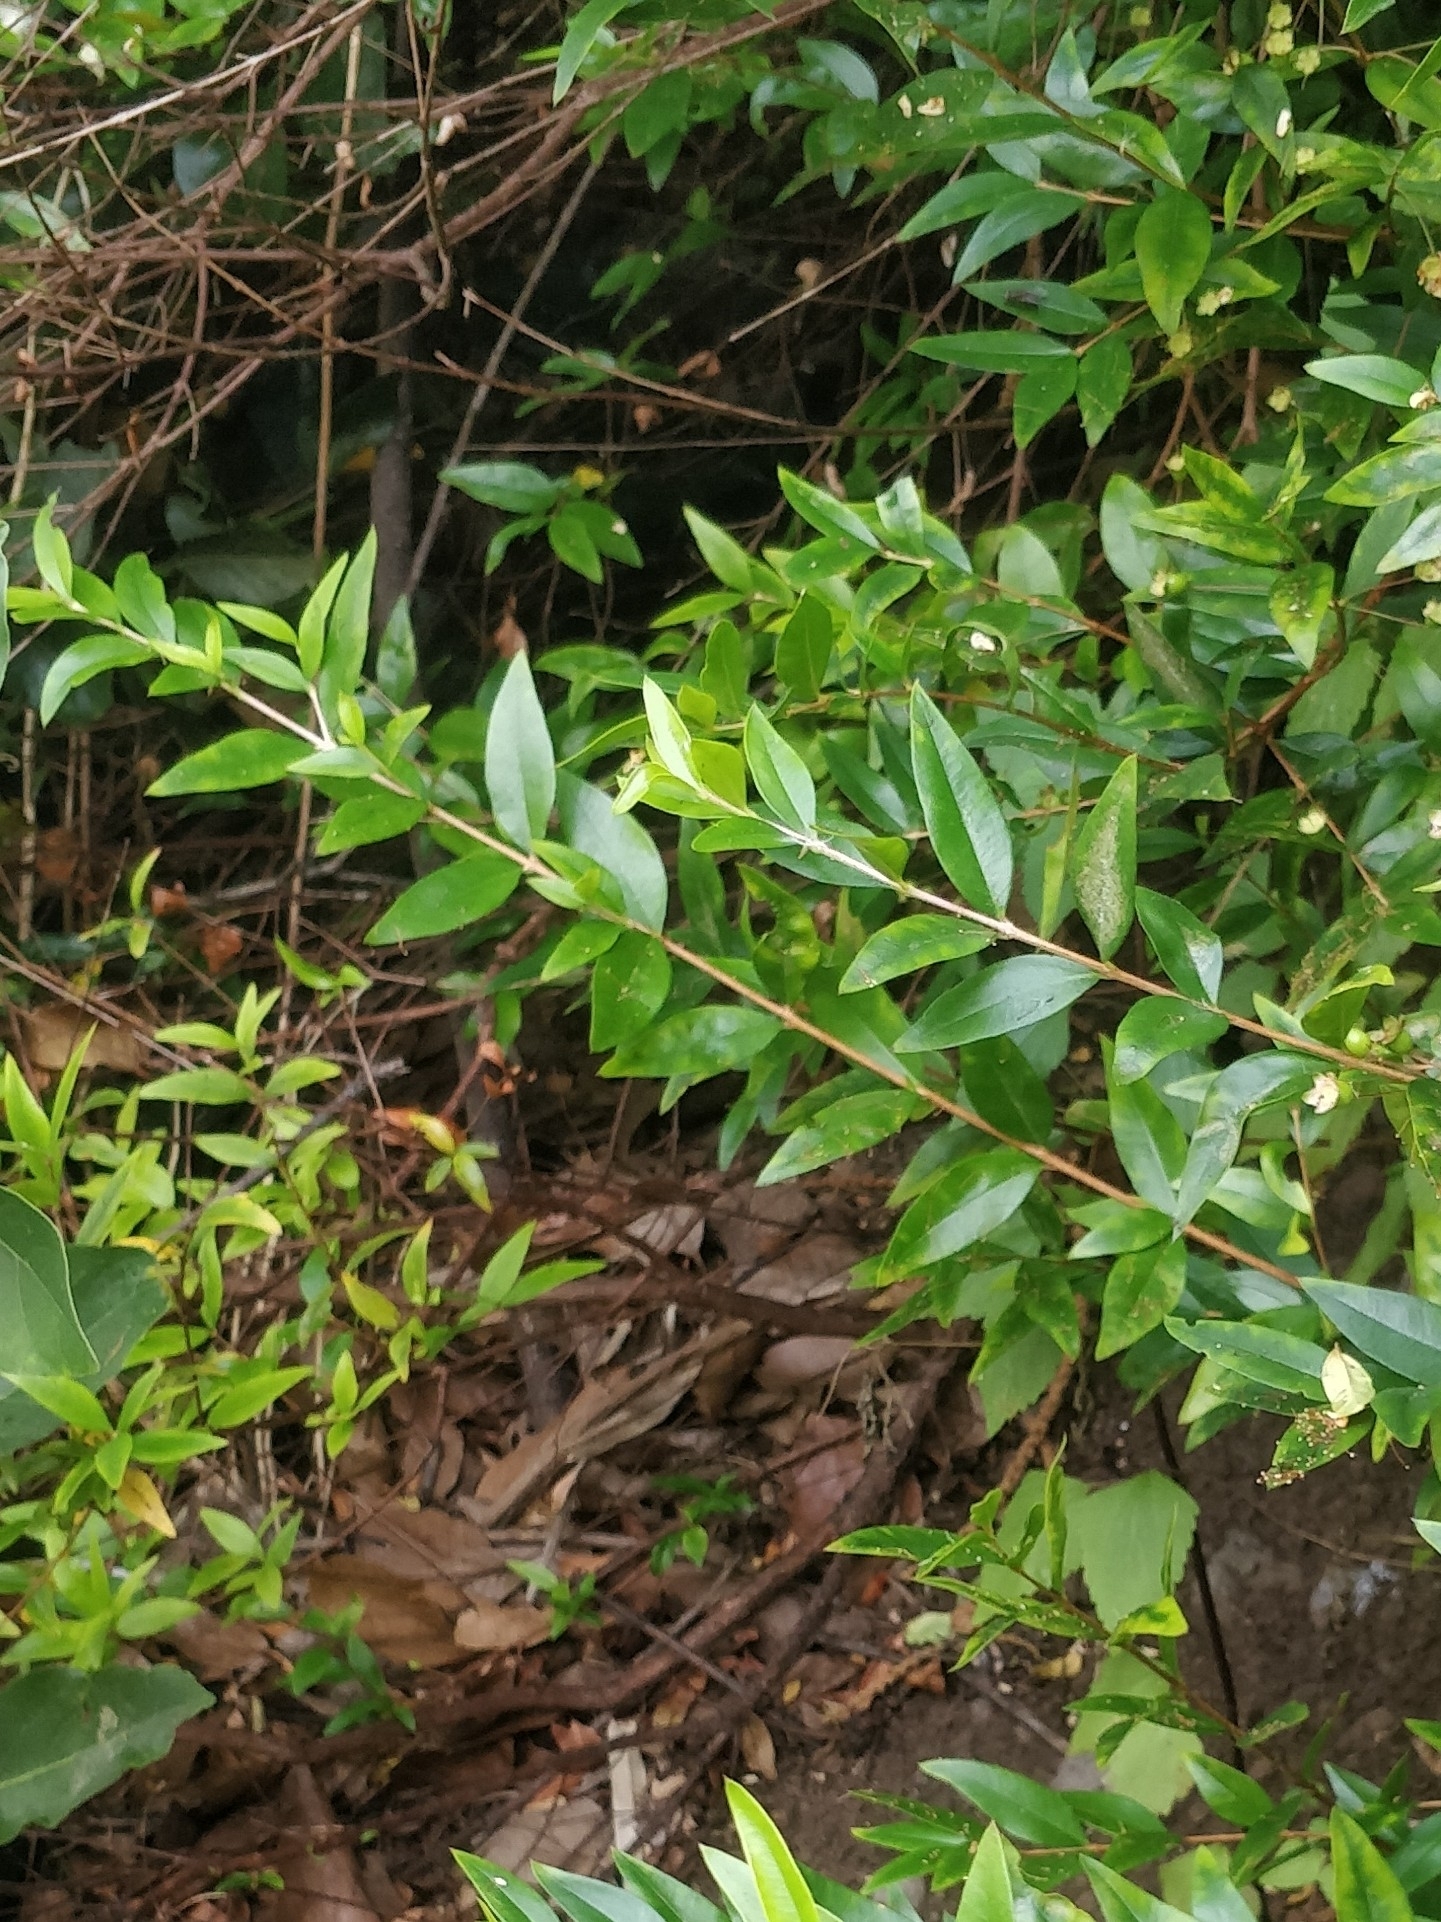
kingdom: Plantae
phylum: Tracheophyta
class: Magnoliopsida
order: Myrtales
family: Myrtaceae
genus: Myrtus
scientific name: Myrtus communis
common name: Myrtle
